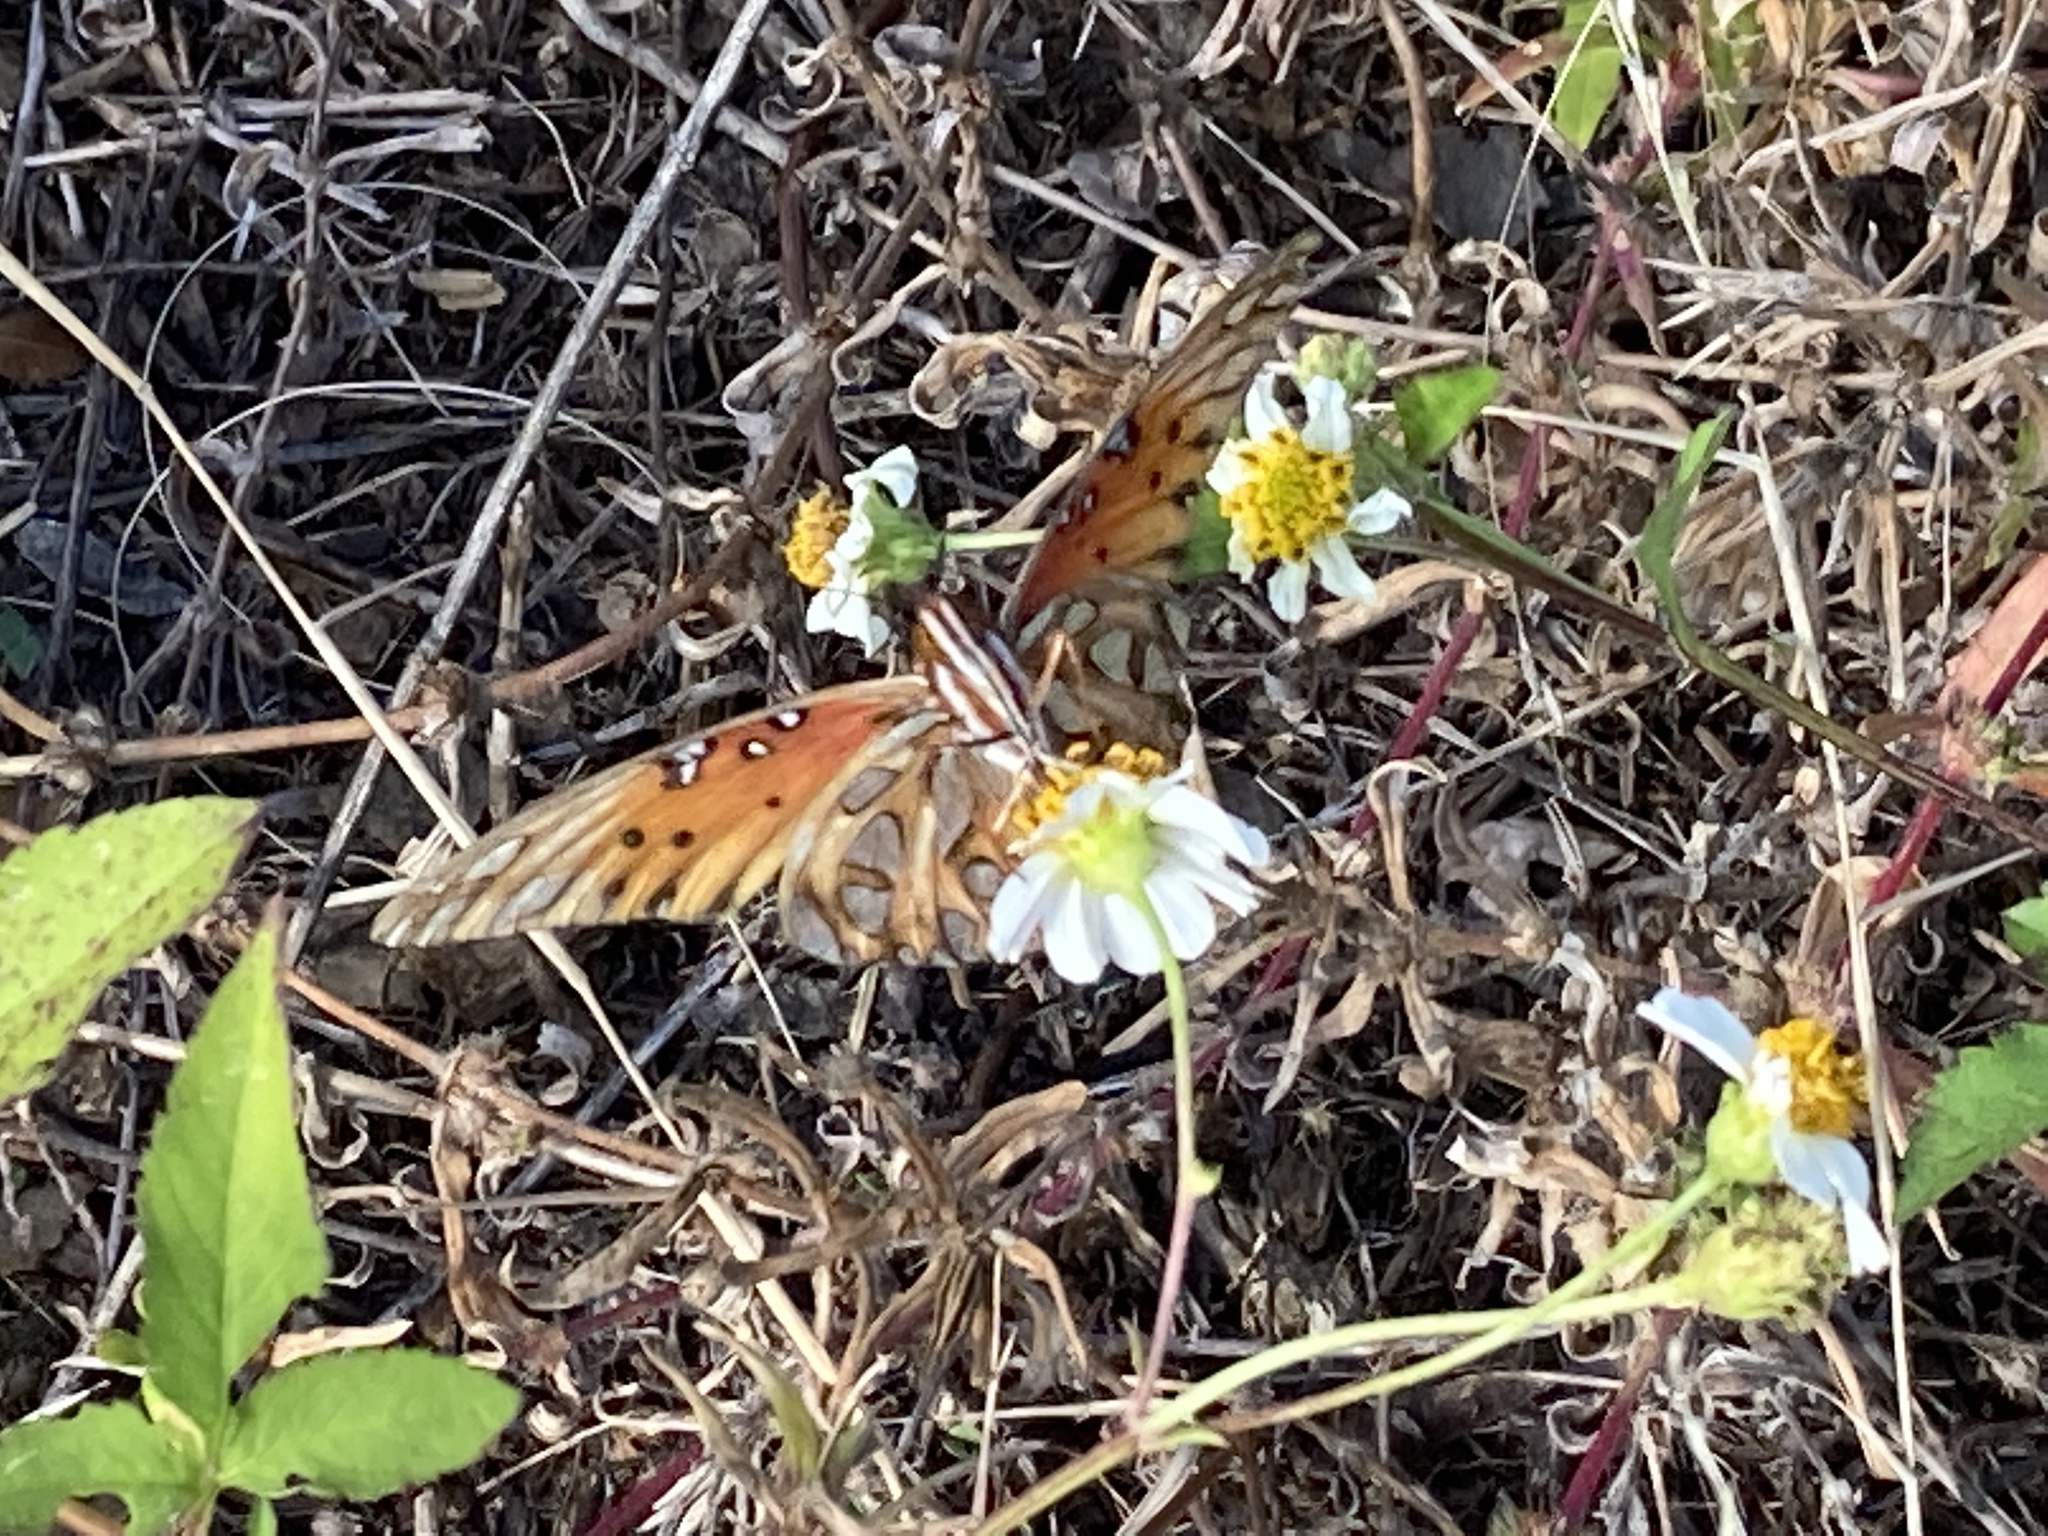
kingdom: Animalia
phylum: Arthropoda
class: Insecta
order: Lepidoptera
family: Nymphalidae
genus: Dione
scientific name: Dione vanillae
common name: Gulf fritillary
